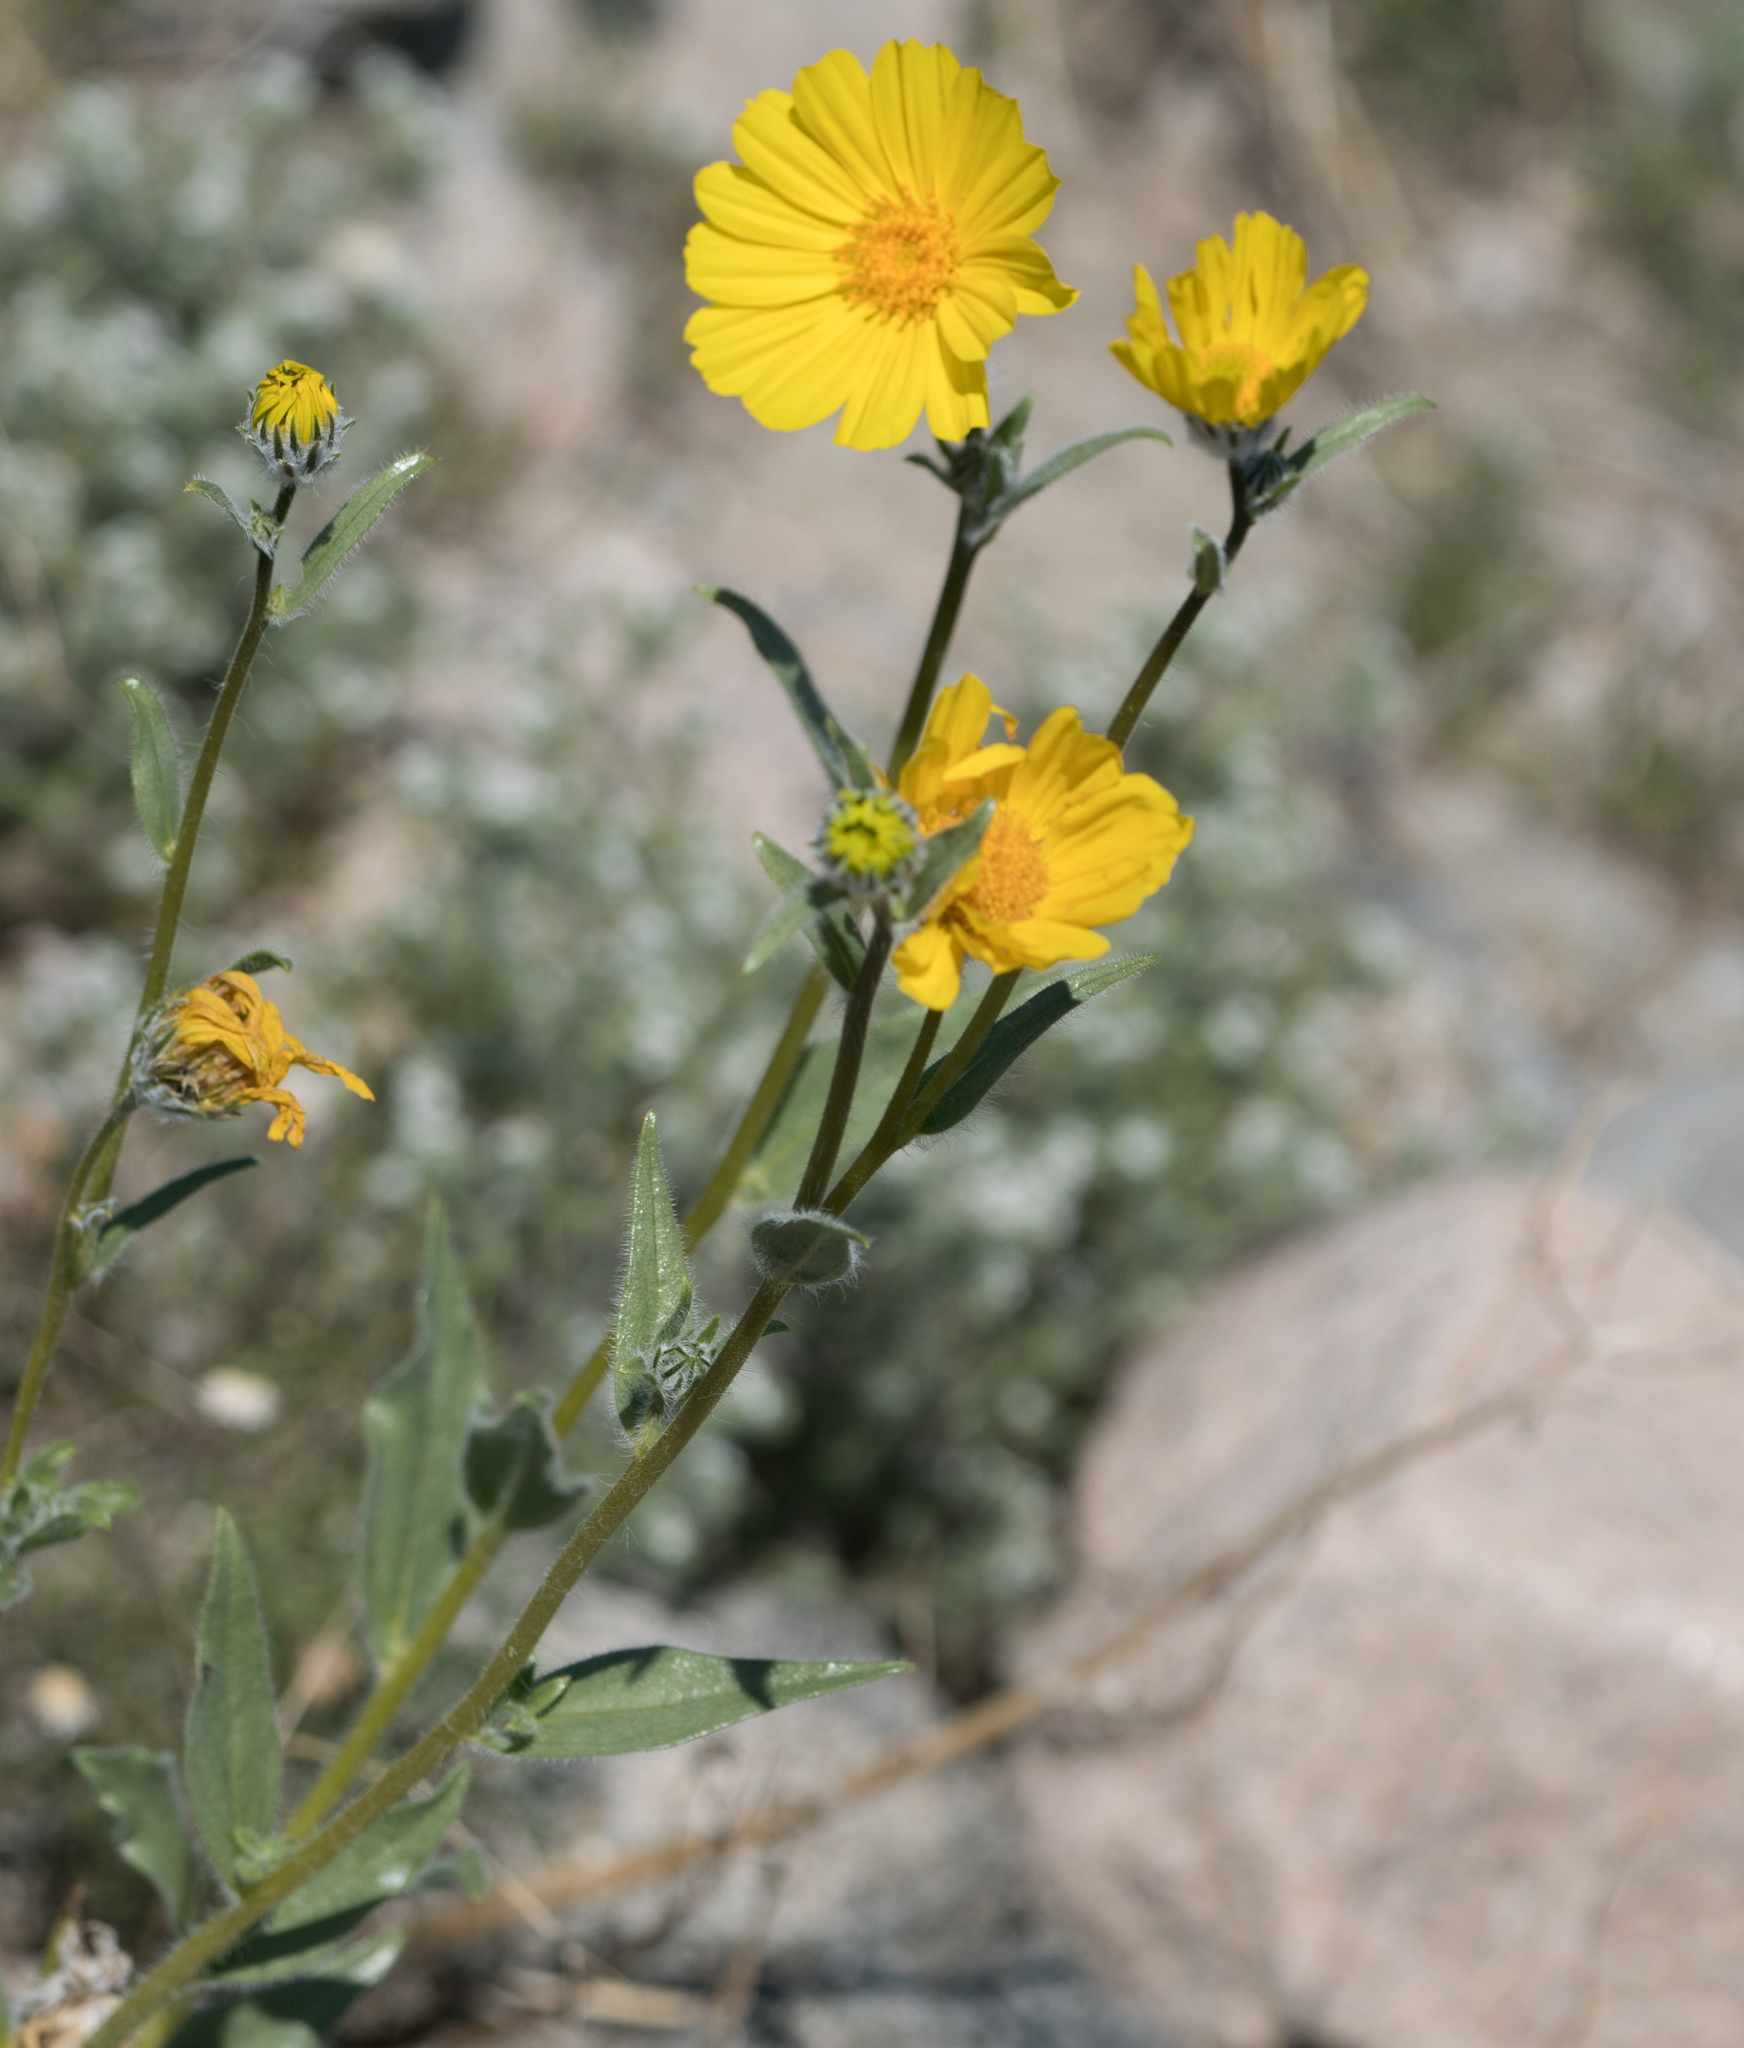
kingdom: Plantae
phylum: Tracheophyta
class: Magnoliopsida
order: Asterales
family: Asteraceae
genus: Geraea
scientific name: Geraea canescens
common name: Desert-gold
